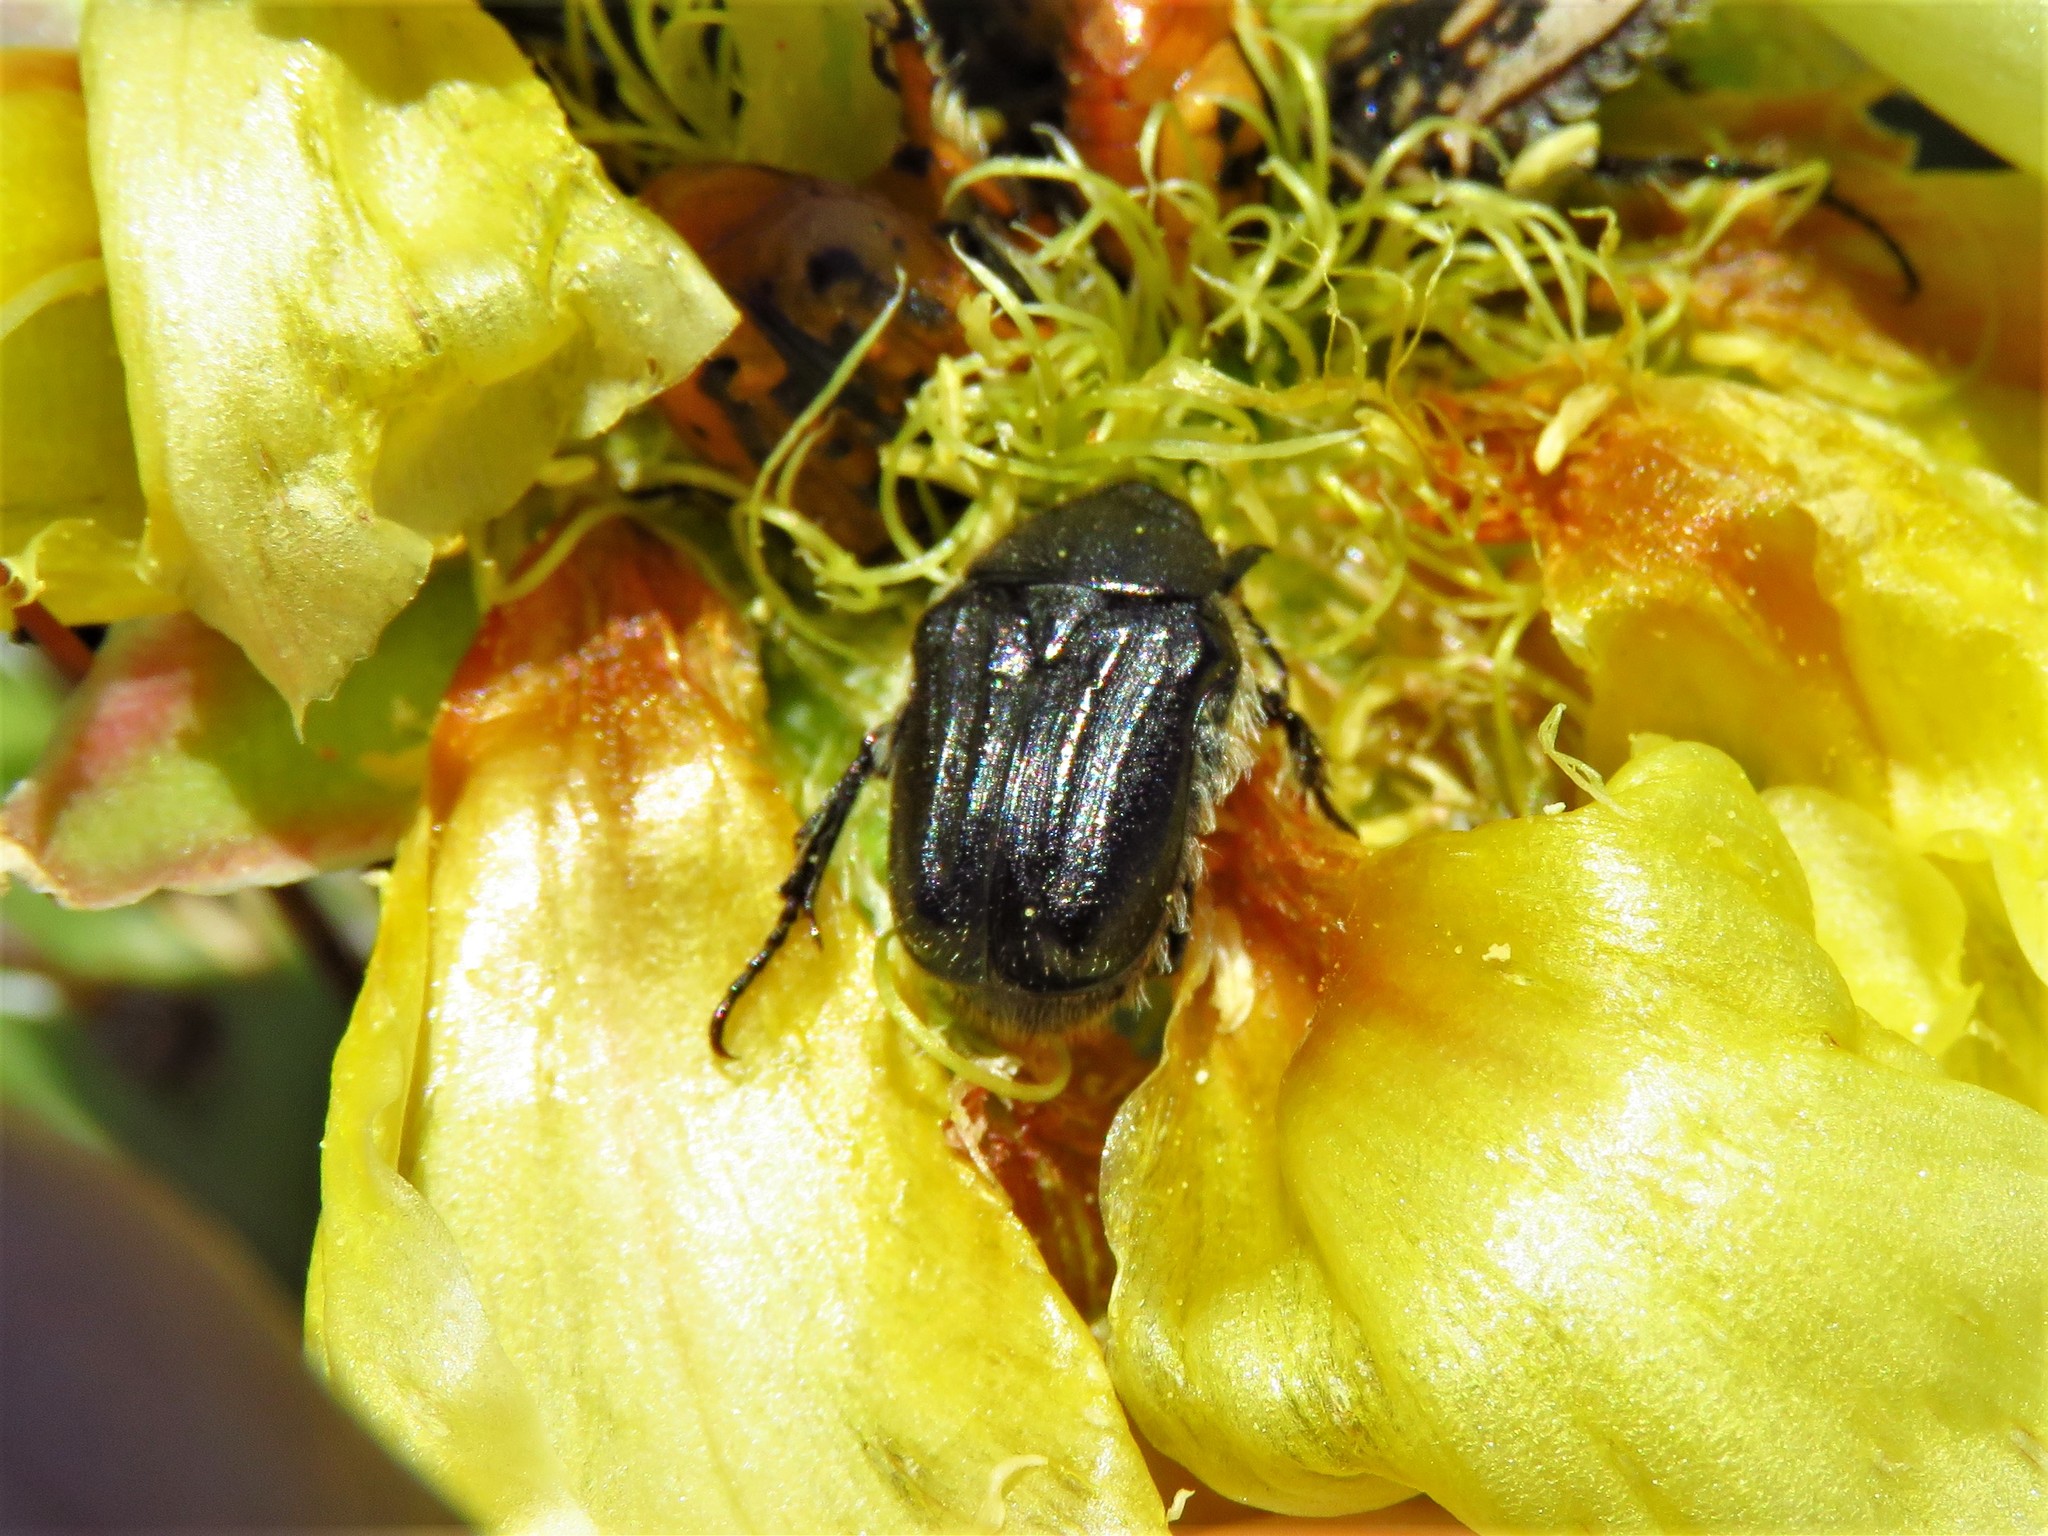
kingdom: Animalia
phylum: Arthropoda
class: Insecta
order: Coleoptera
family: Scarabaeidae
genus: Euphoria
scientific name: Euphoria kernii
